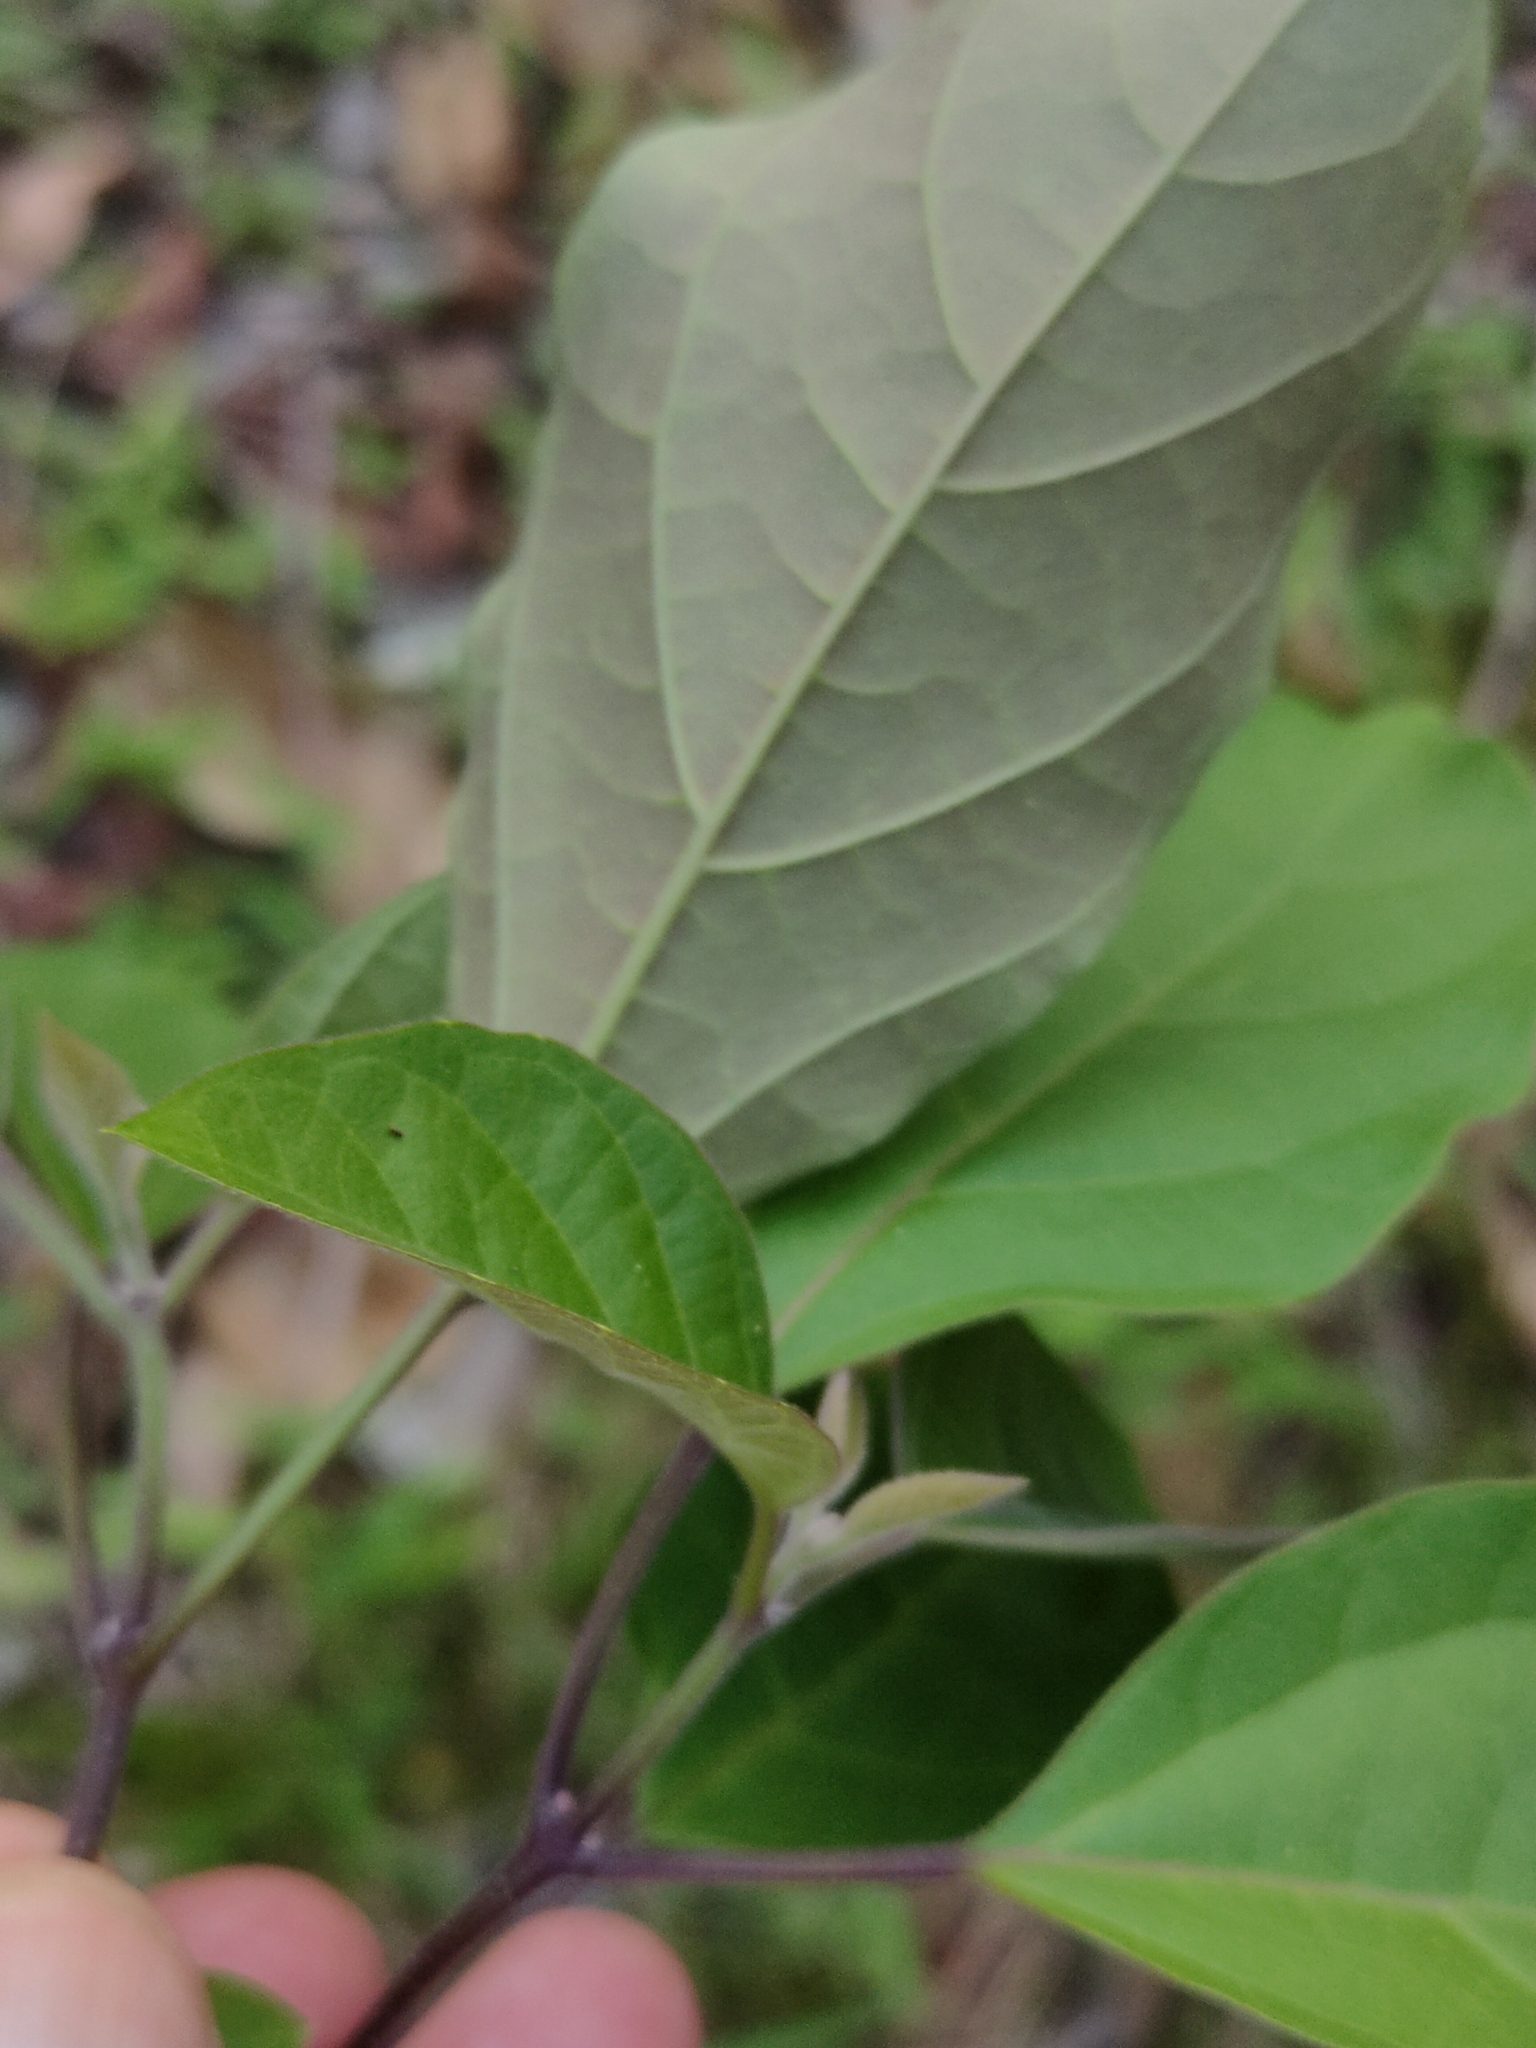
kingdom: Plantae
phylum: Tracheophyta
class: Magnoliopsida
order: Lamiales
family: Lamiaceae
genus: Clerodendrum
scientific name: Clerodendrum floribundum
